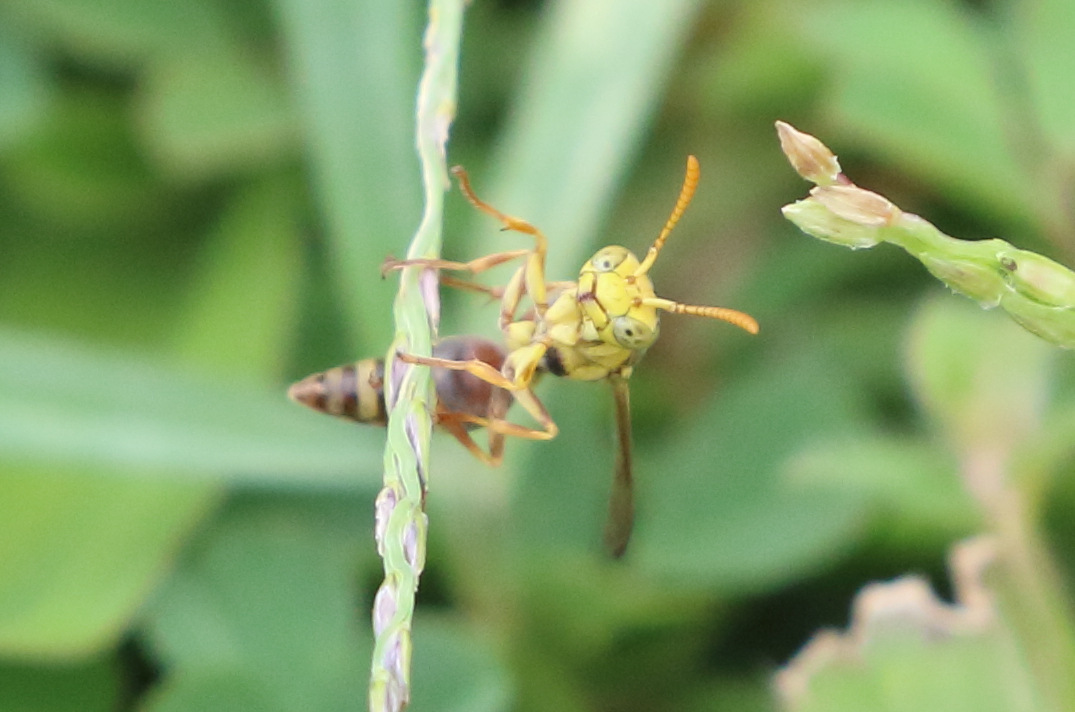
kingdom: Animalia
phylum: Arthropoda
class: Insecta
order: Hymenoptera
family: Vespidae
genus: Ropalidia
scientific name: Ropalidia romandi
